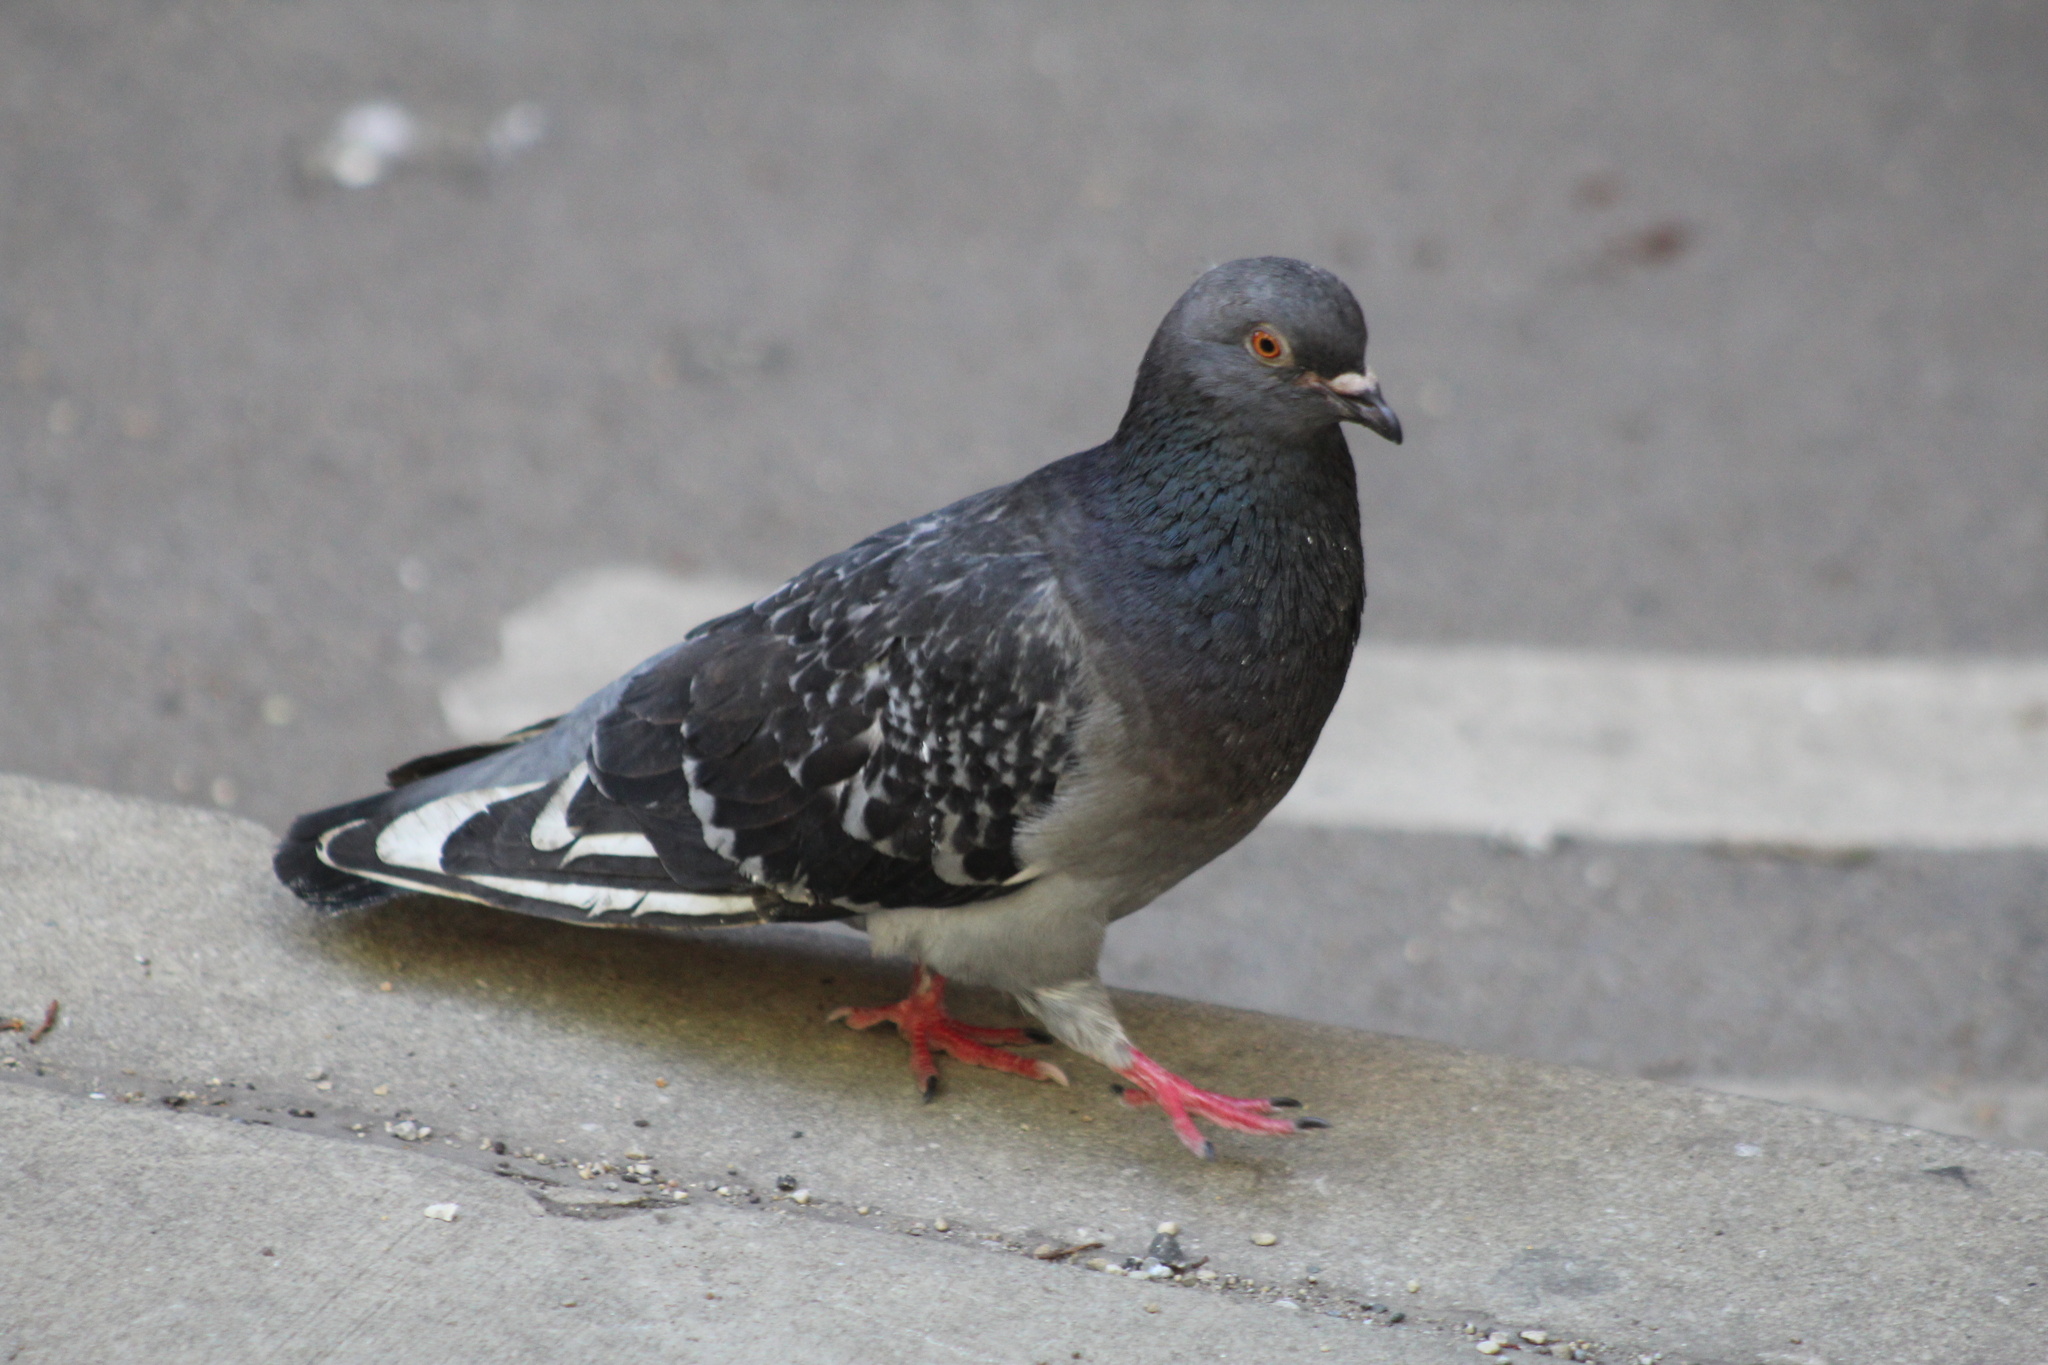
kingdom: Animalia
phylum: Chordata
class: Aves
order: Columbiformes
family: Columbidae
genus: Columba
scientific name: Columba livia
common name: Rock pigeon
